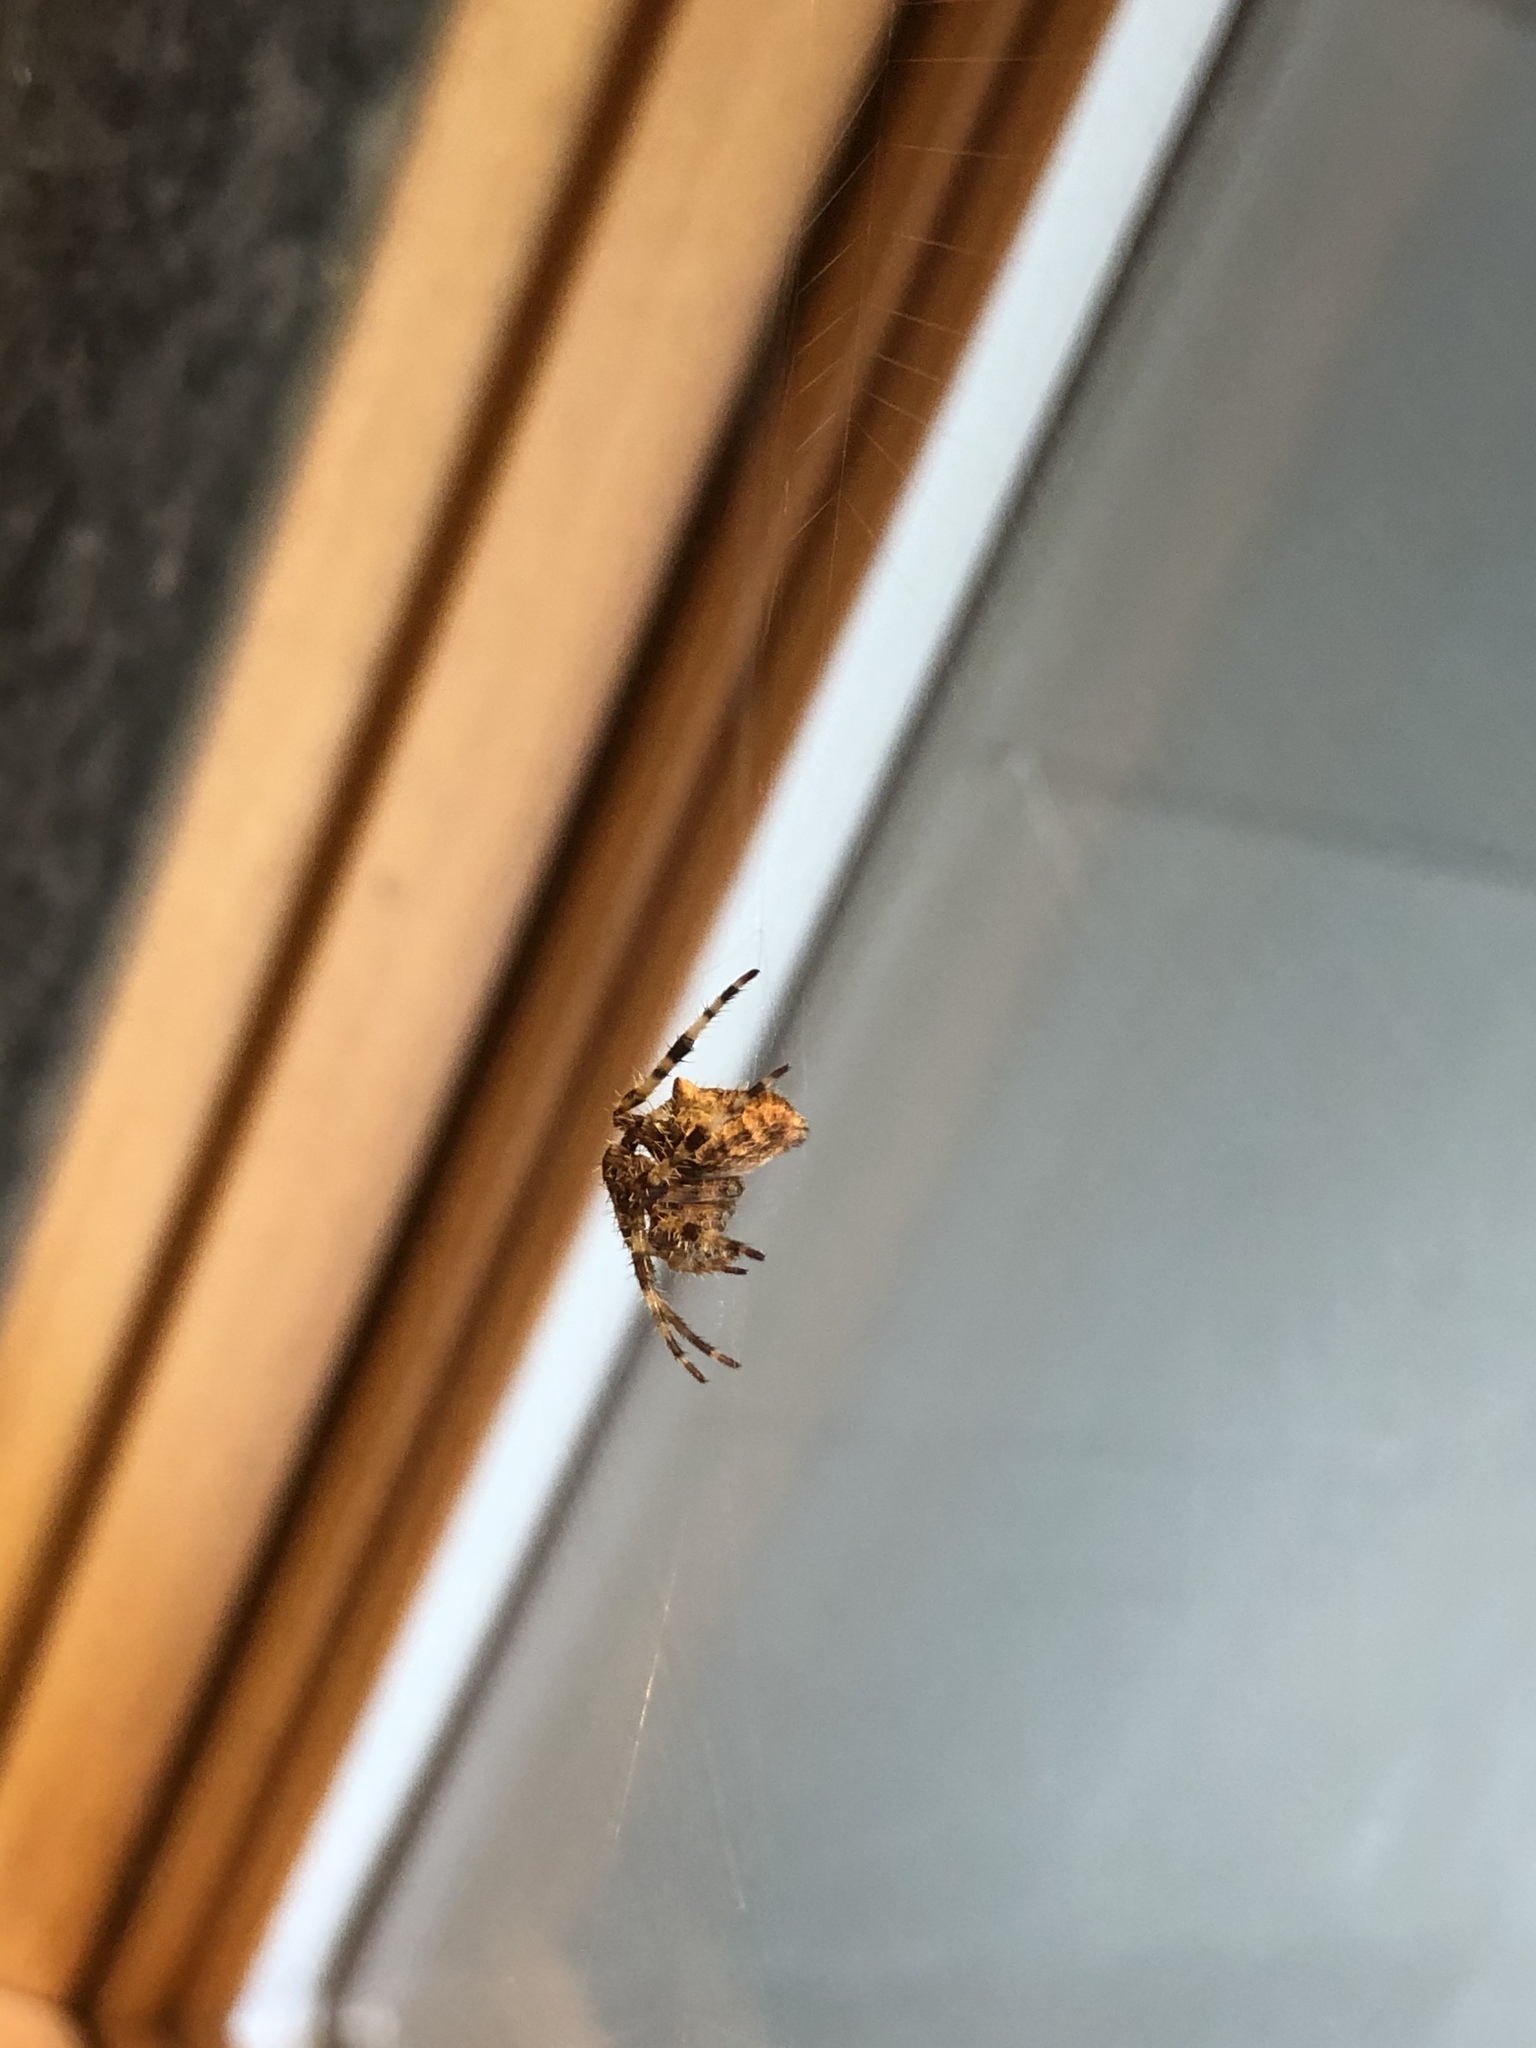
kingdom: Animalia
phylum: Arthropoda
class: Arachnida
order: Araneae
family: Araneidae
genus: Araneus
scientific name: Araneus gemmoides
